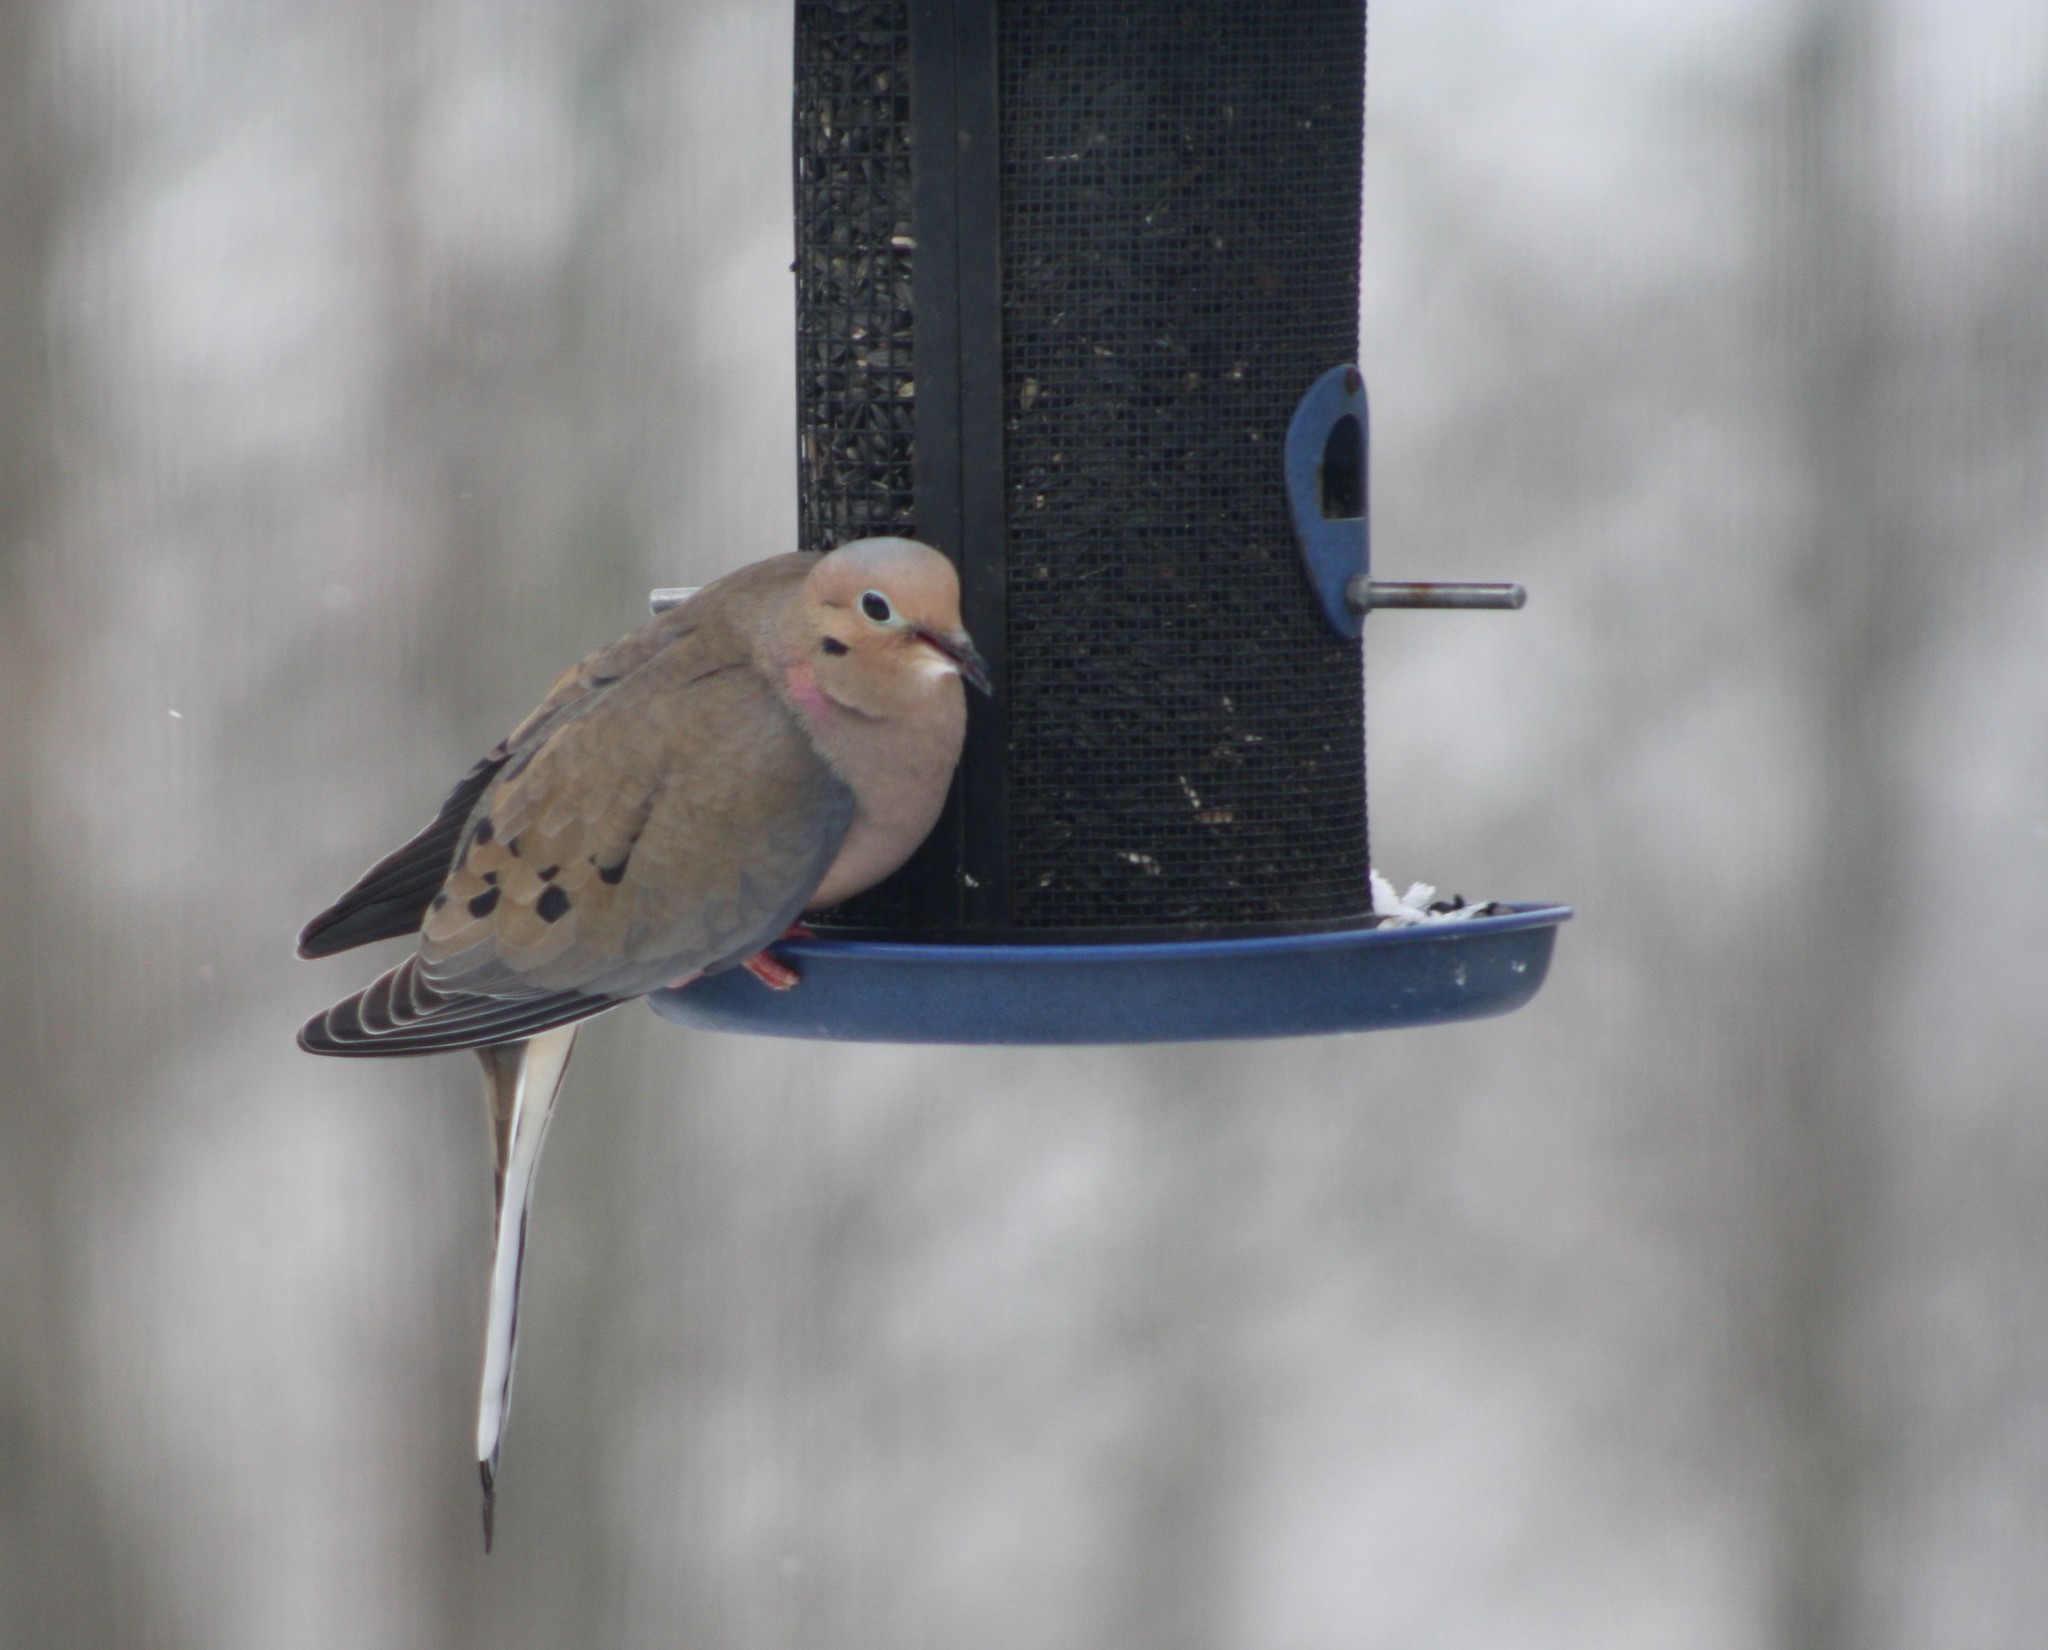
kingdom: Animalia
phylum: Chordata
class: Aves
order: Columbiformes
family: Columbidae
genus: Zenaida
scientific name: Zenaida macroura
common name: Mourning dove
